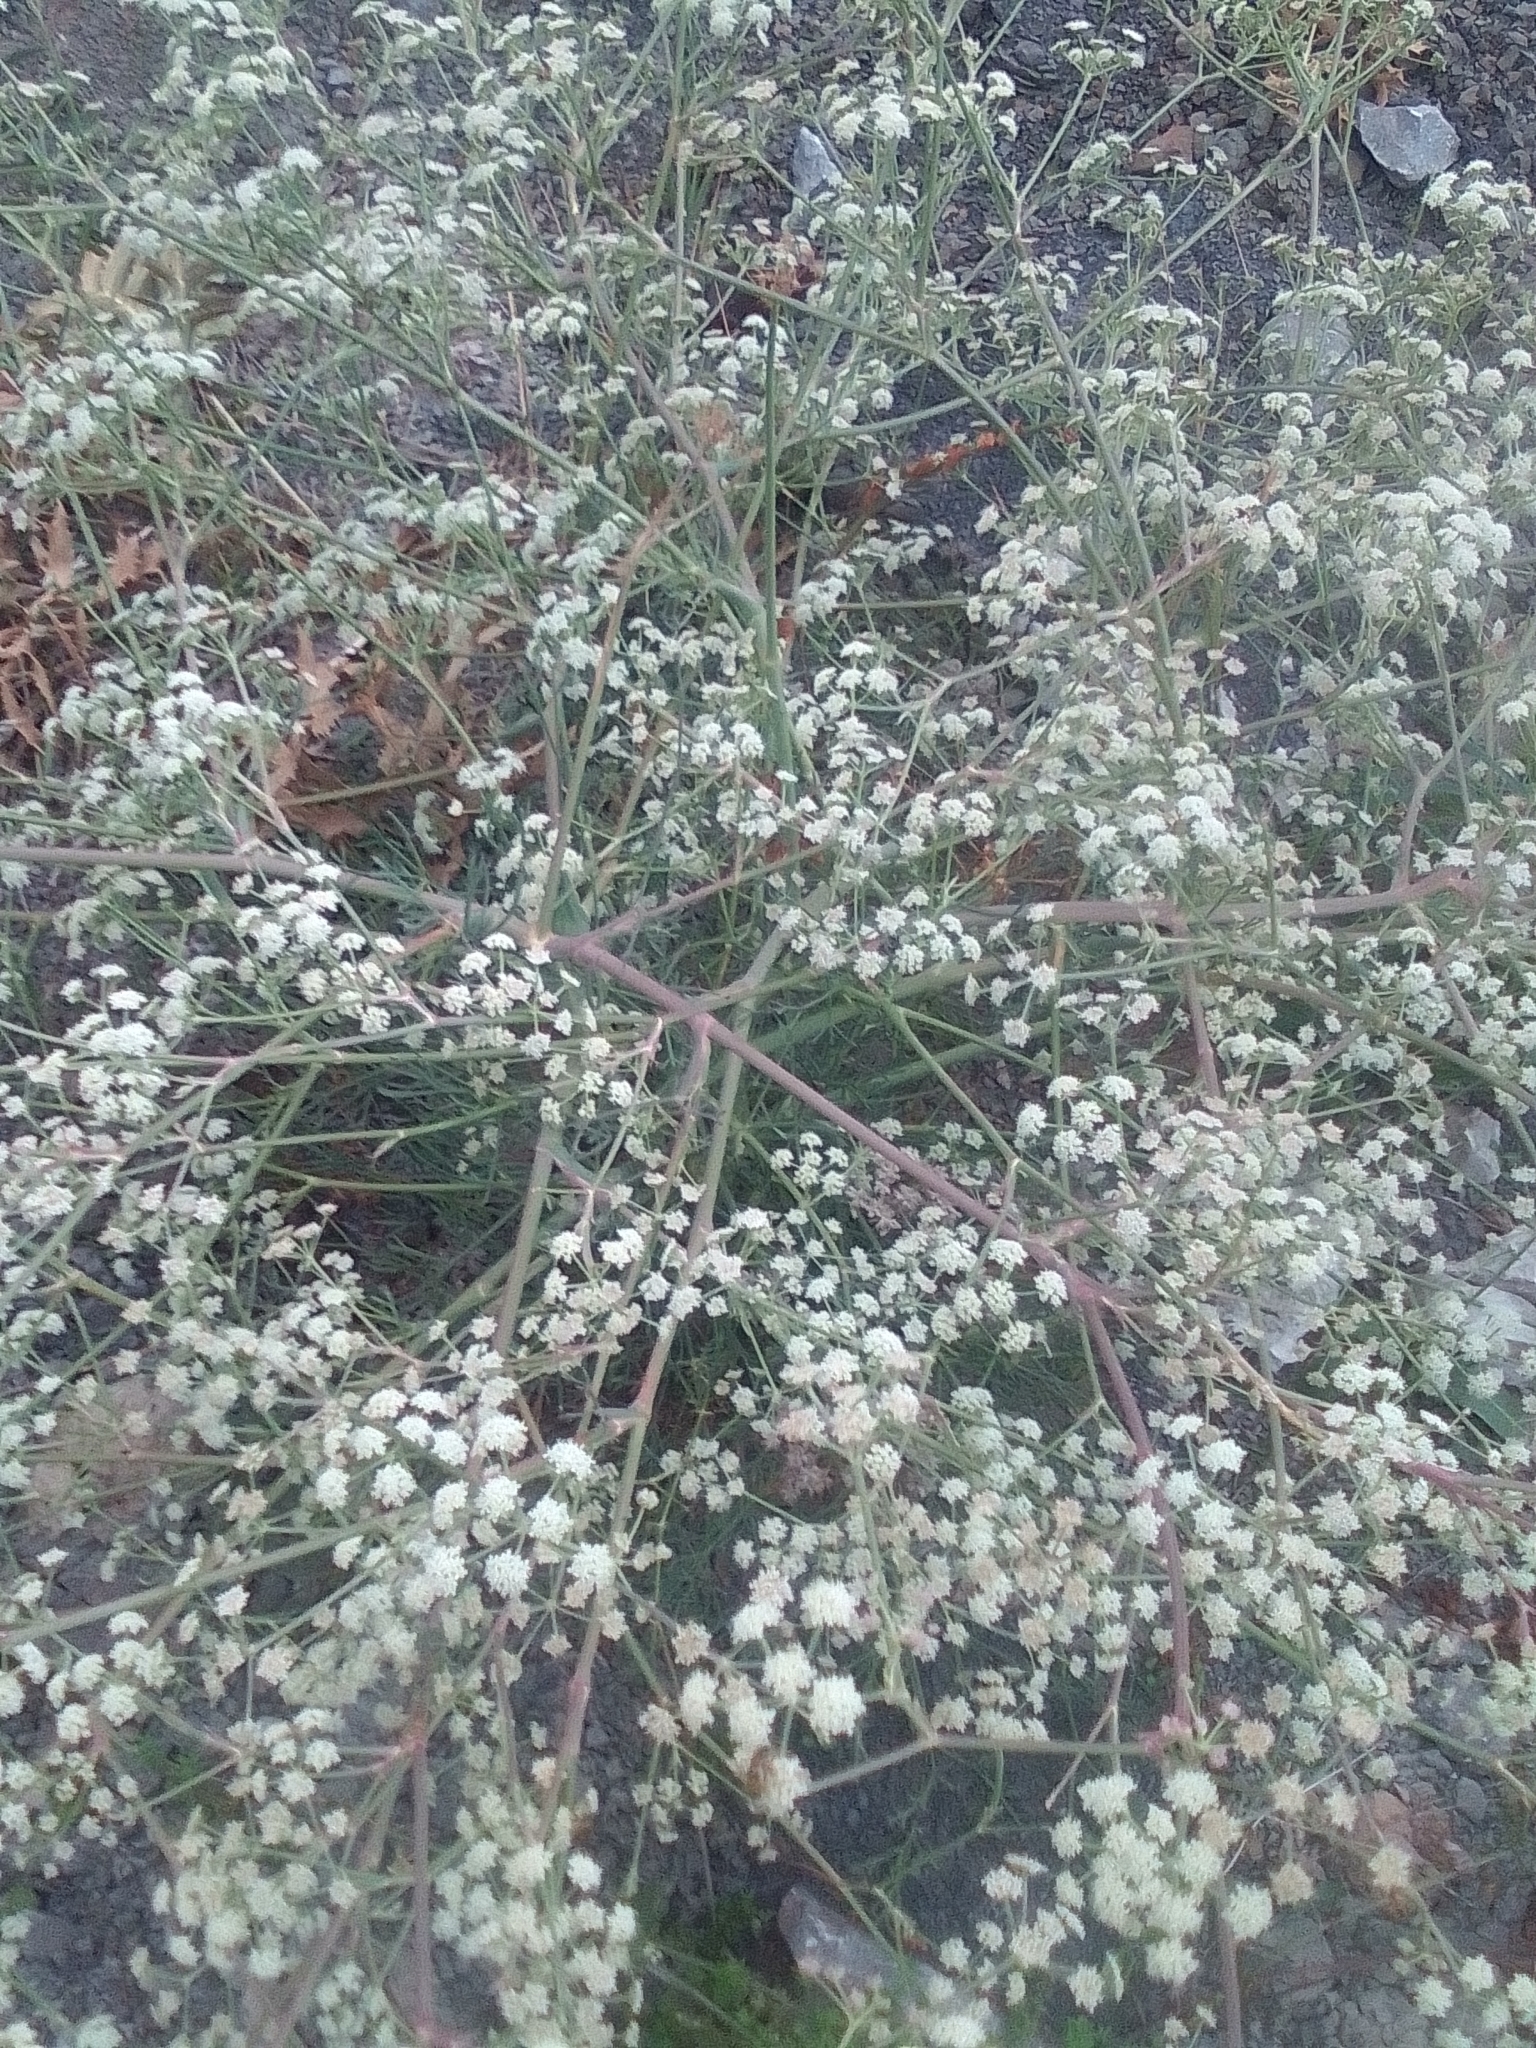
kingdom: Plantae
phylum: Tracheophyta
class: Magnoliopsida
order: Apiales
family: Apiaceae
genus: Seseli
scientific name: Seseli arenarium
